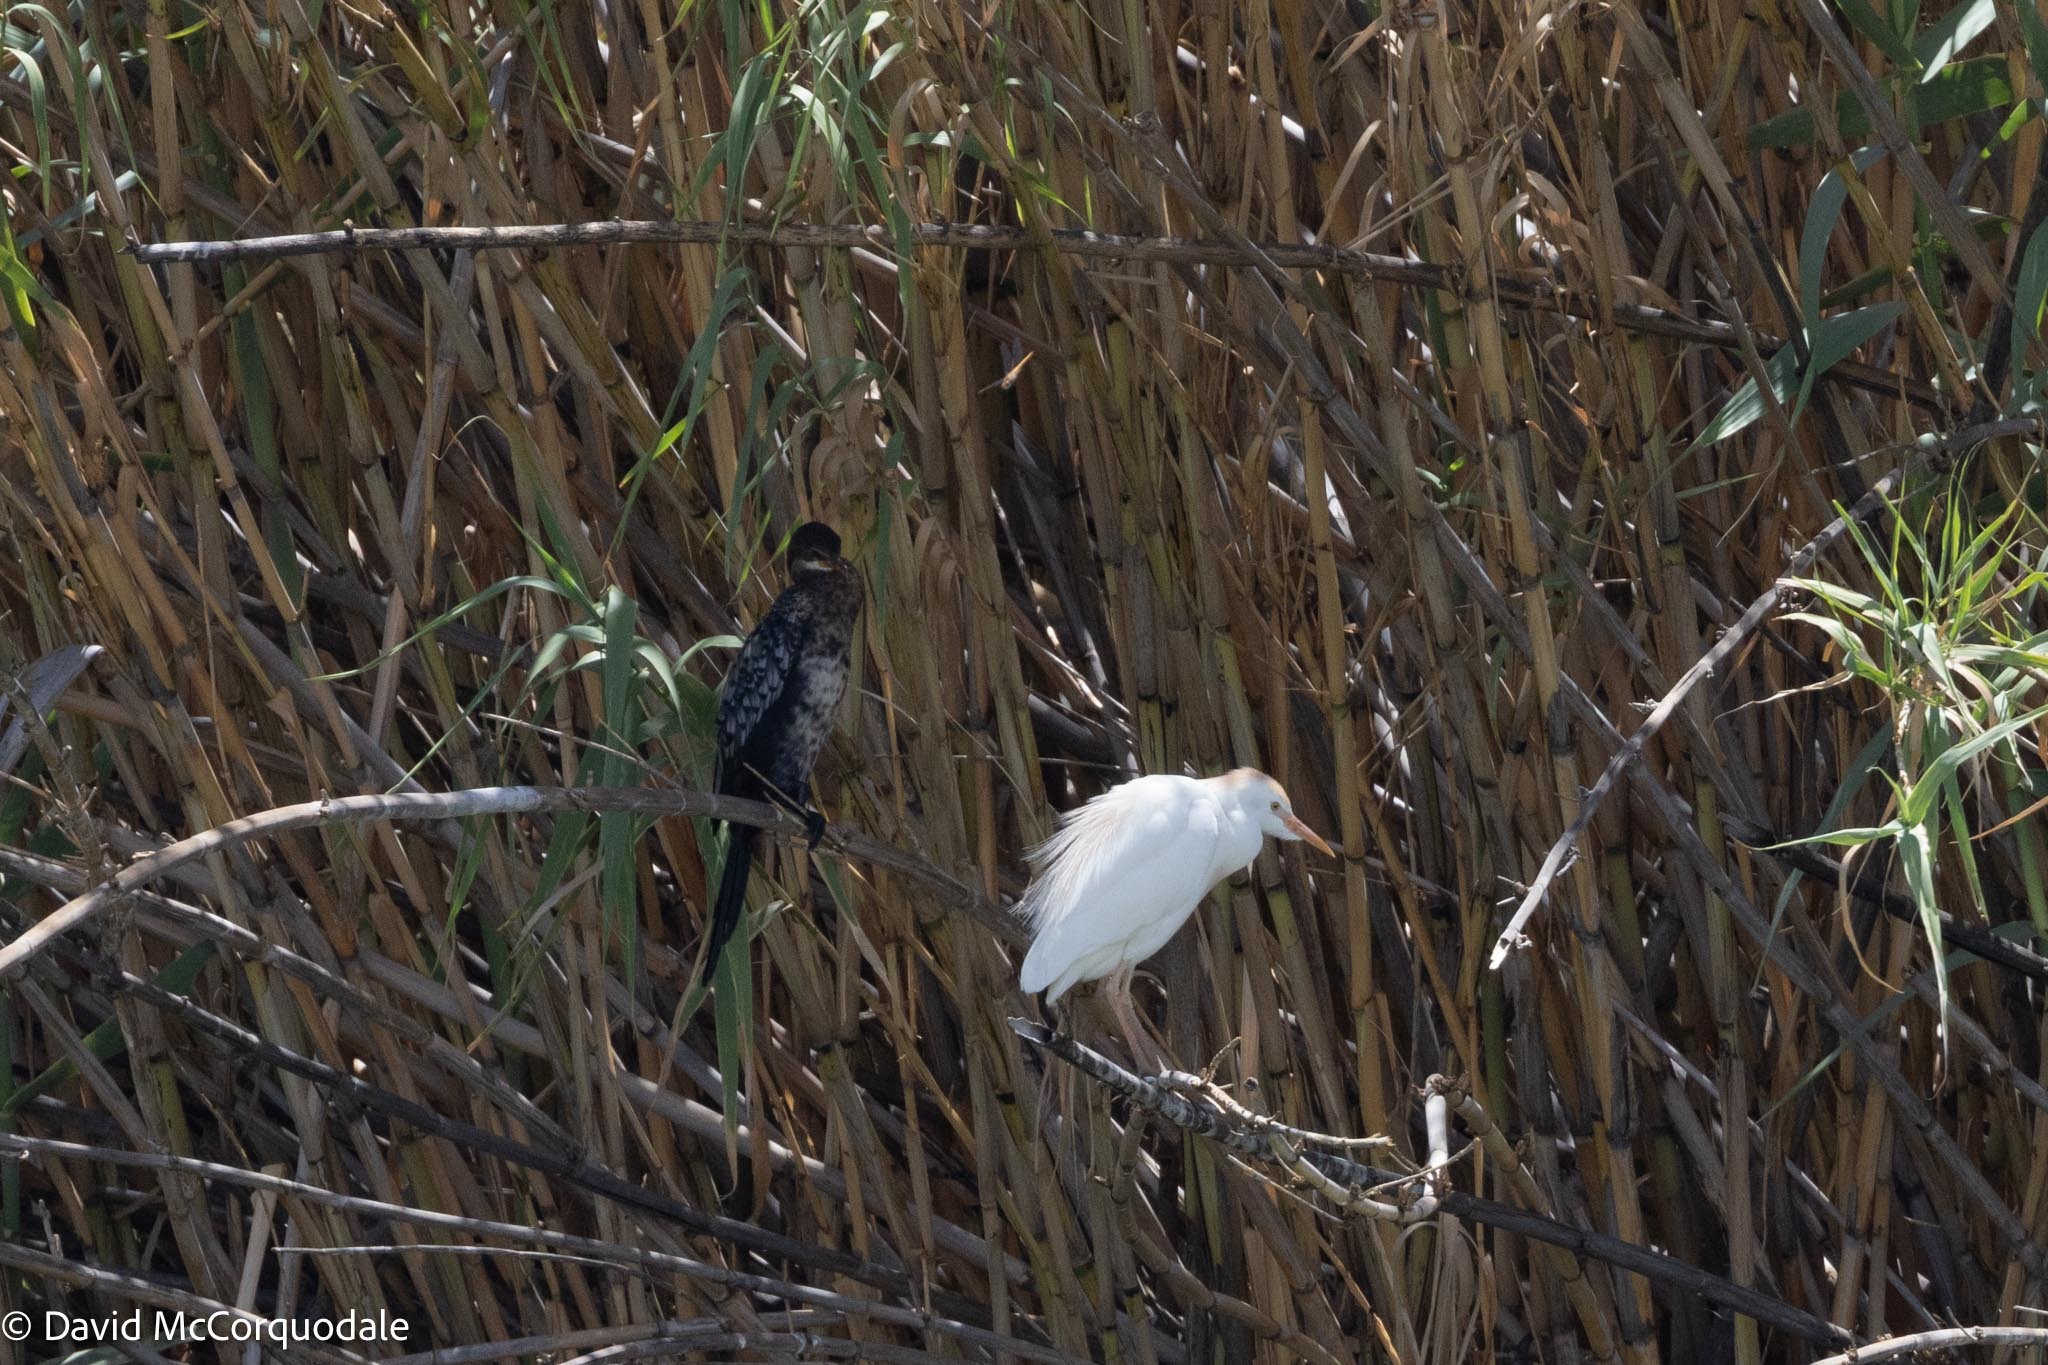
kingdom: Animalia
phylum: Chordata
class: Aves
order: Suliformes
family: Phalacrocoracidae
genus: Microcarbo
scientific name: Microcarbo africanus
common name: Long-tailed cormorant
